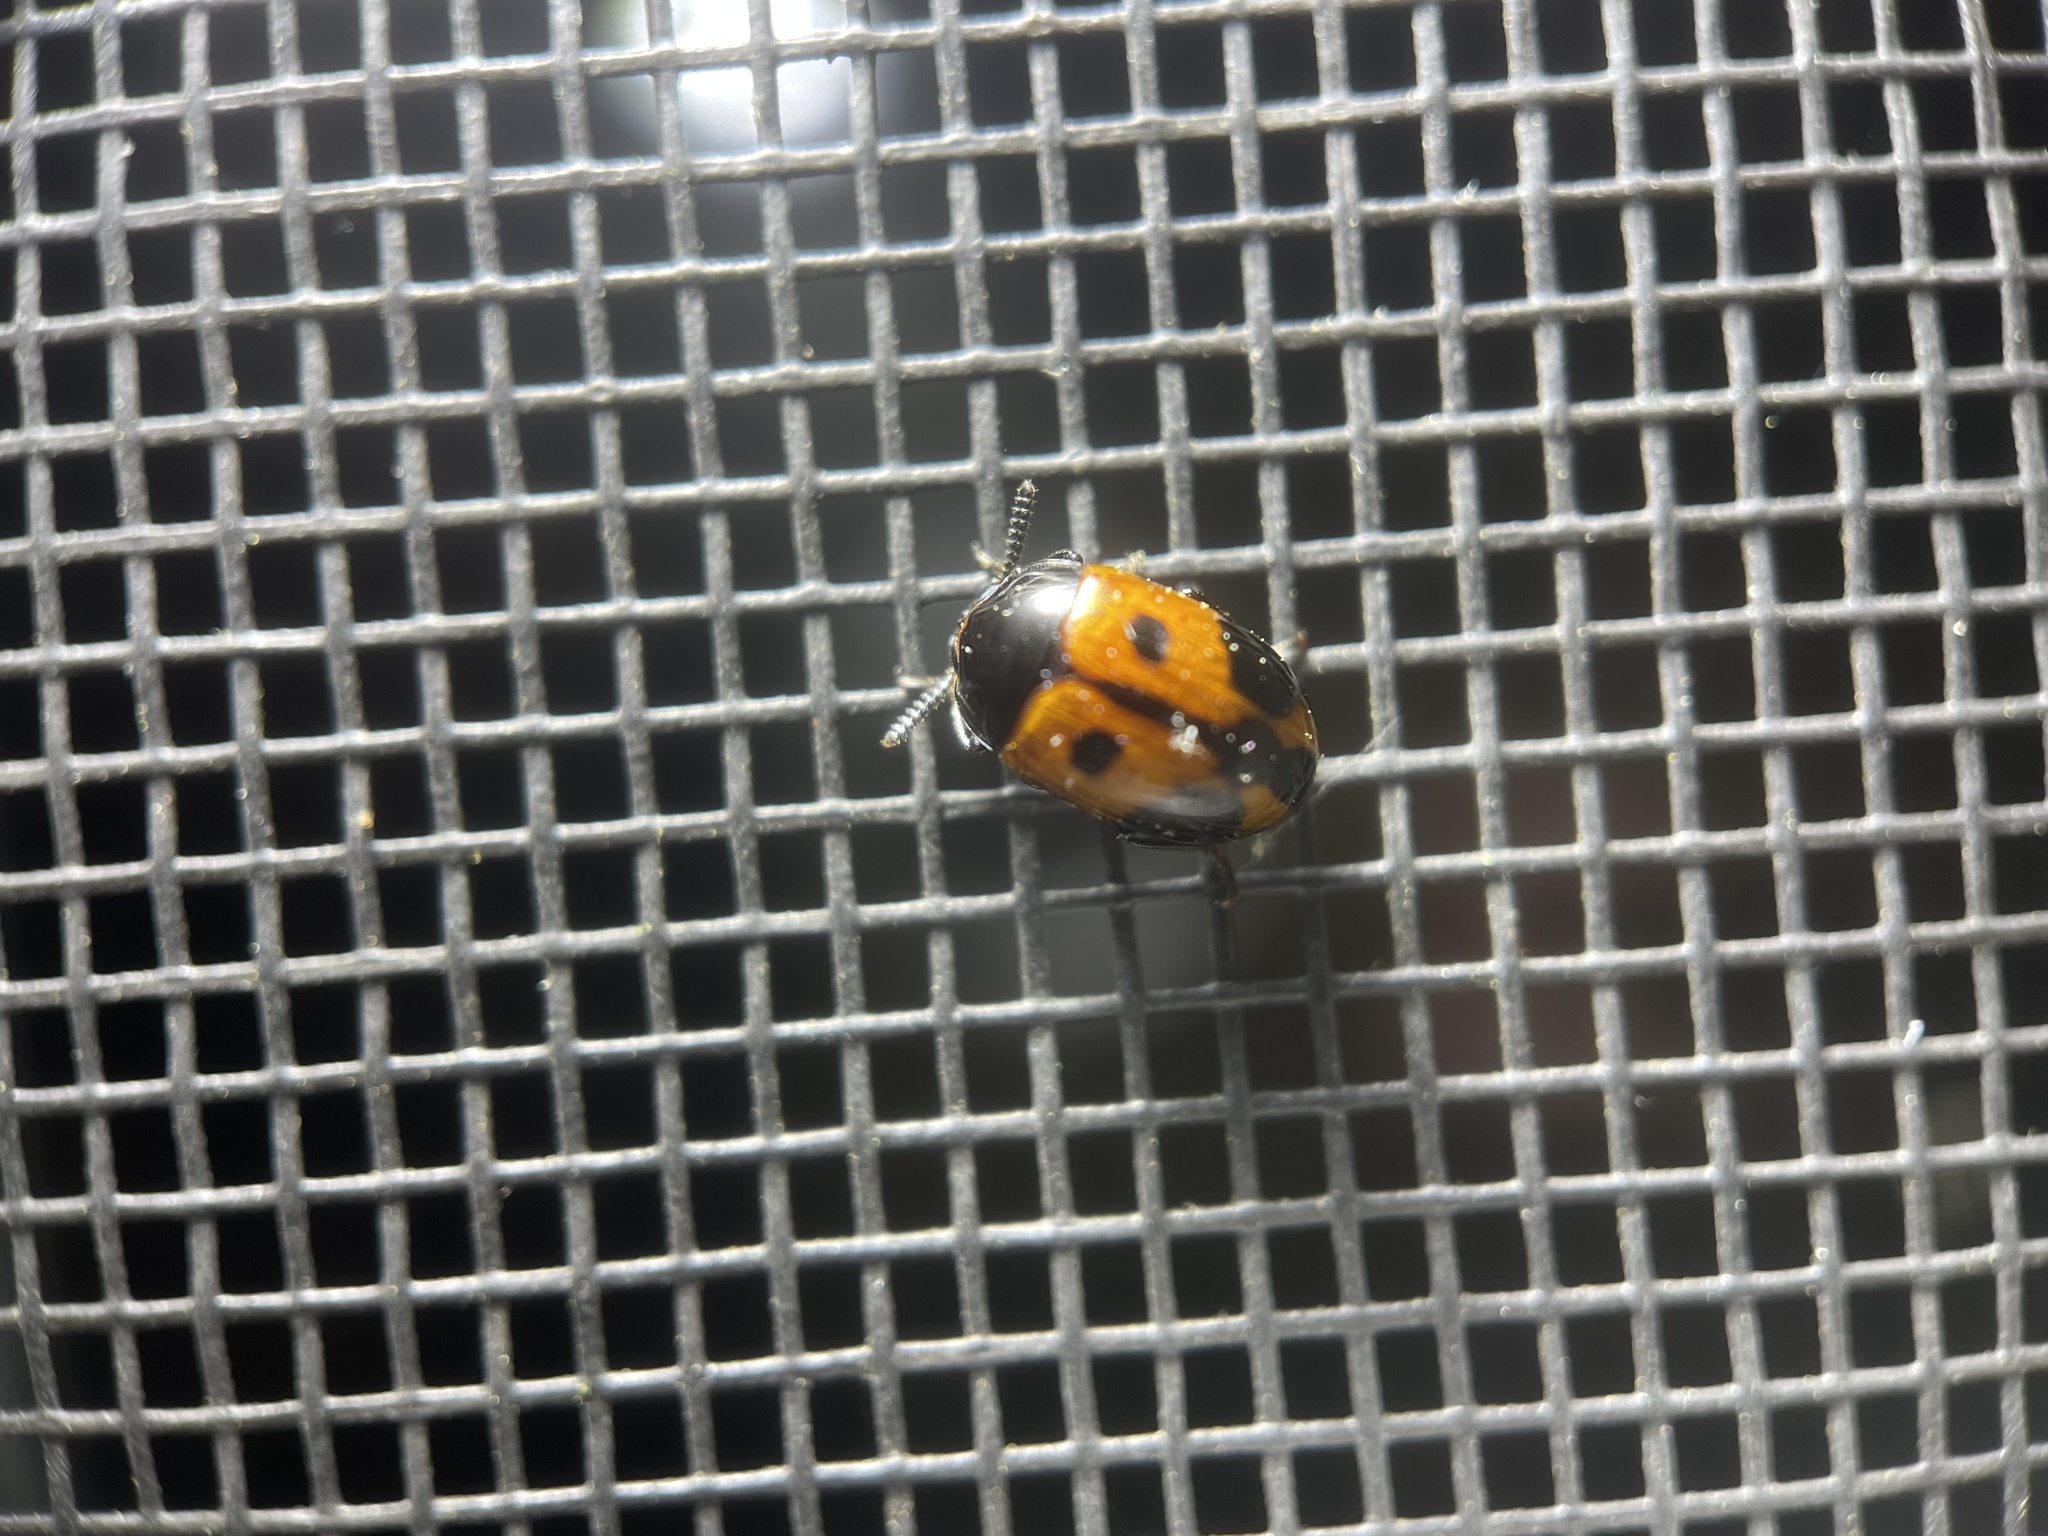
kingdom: Animalia
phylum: Arthropoda
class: Insecta
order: Coleoptera
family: Tenebrionidae
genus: Diaperis
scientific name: Diaperis maculata
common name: Darkling beetle
